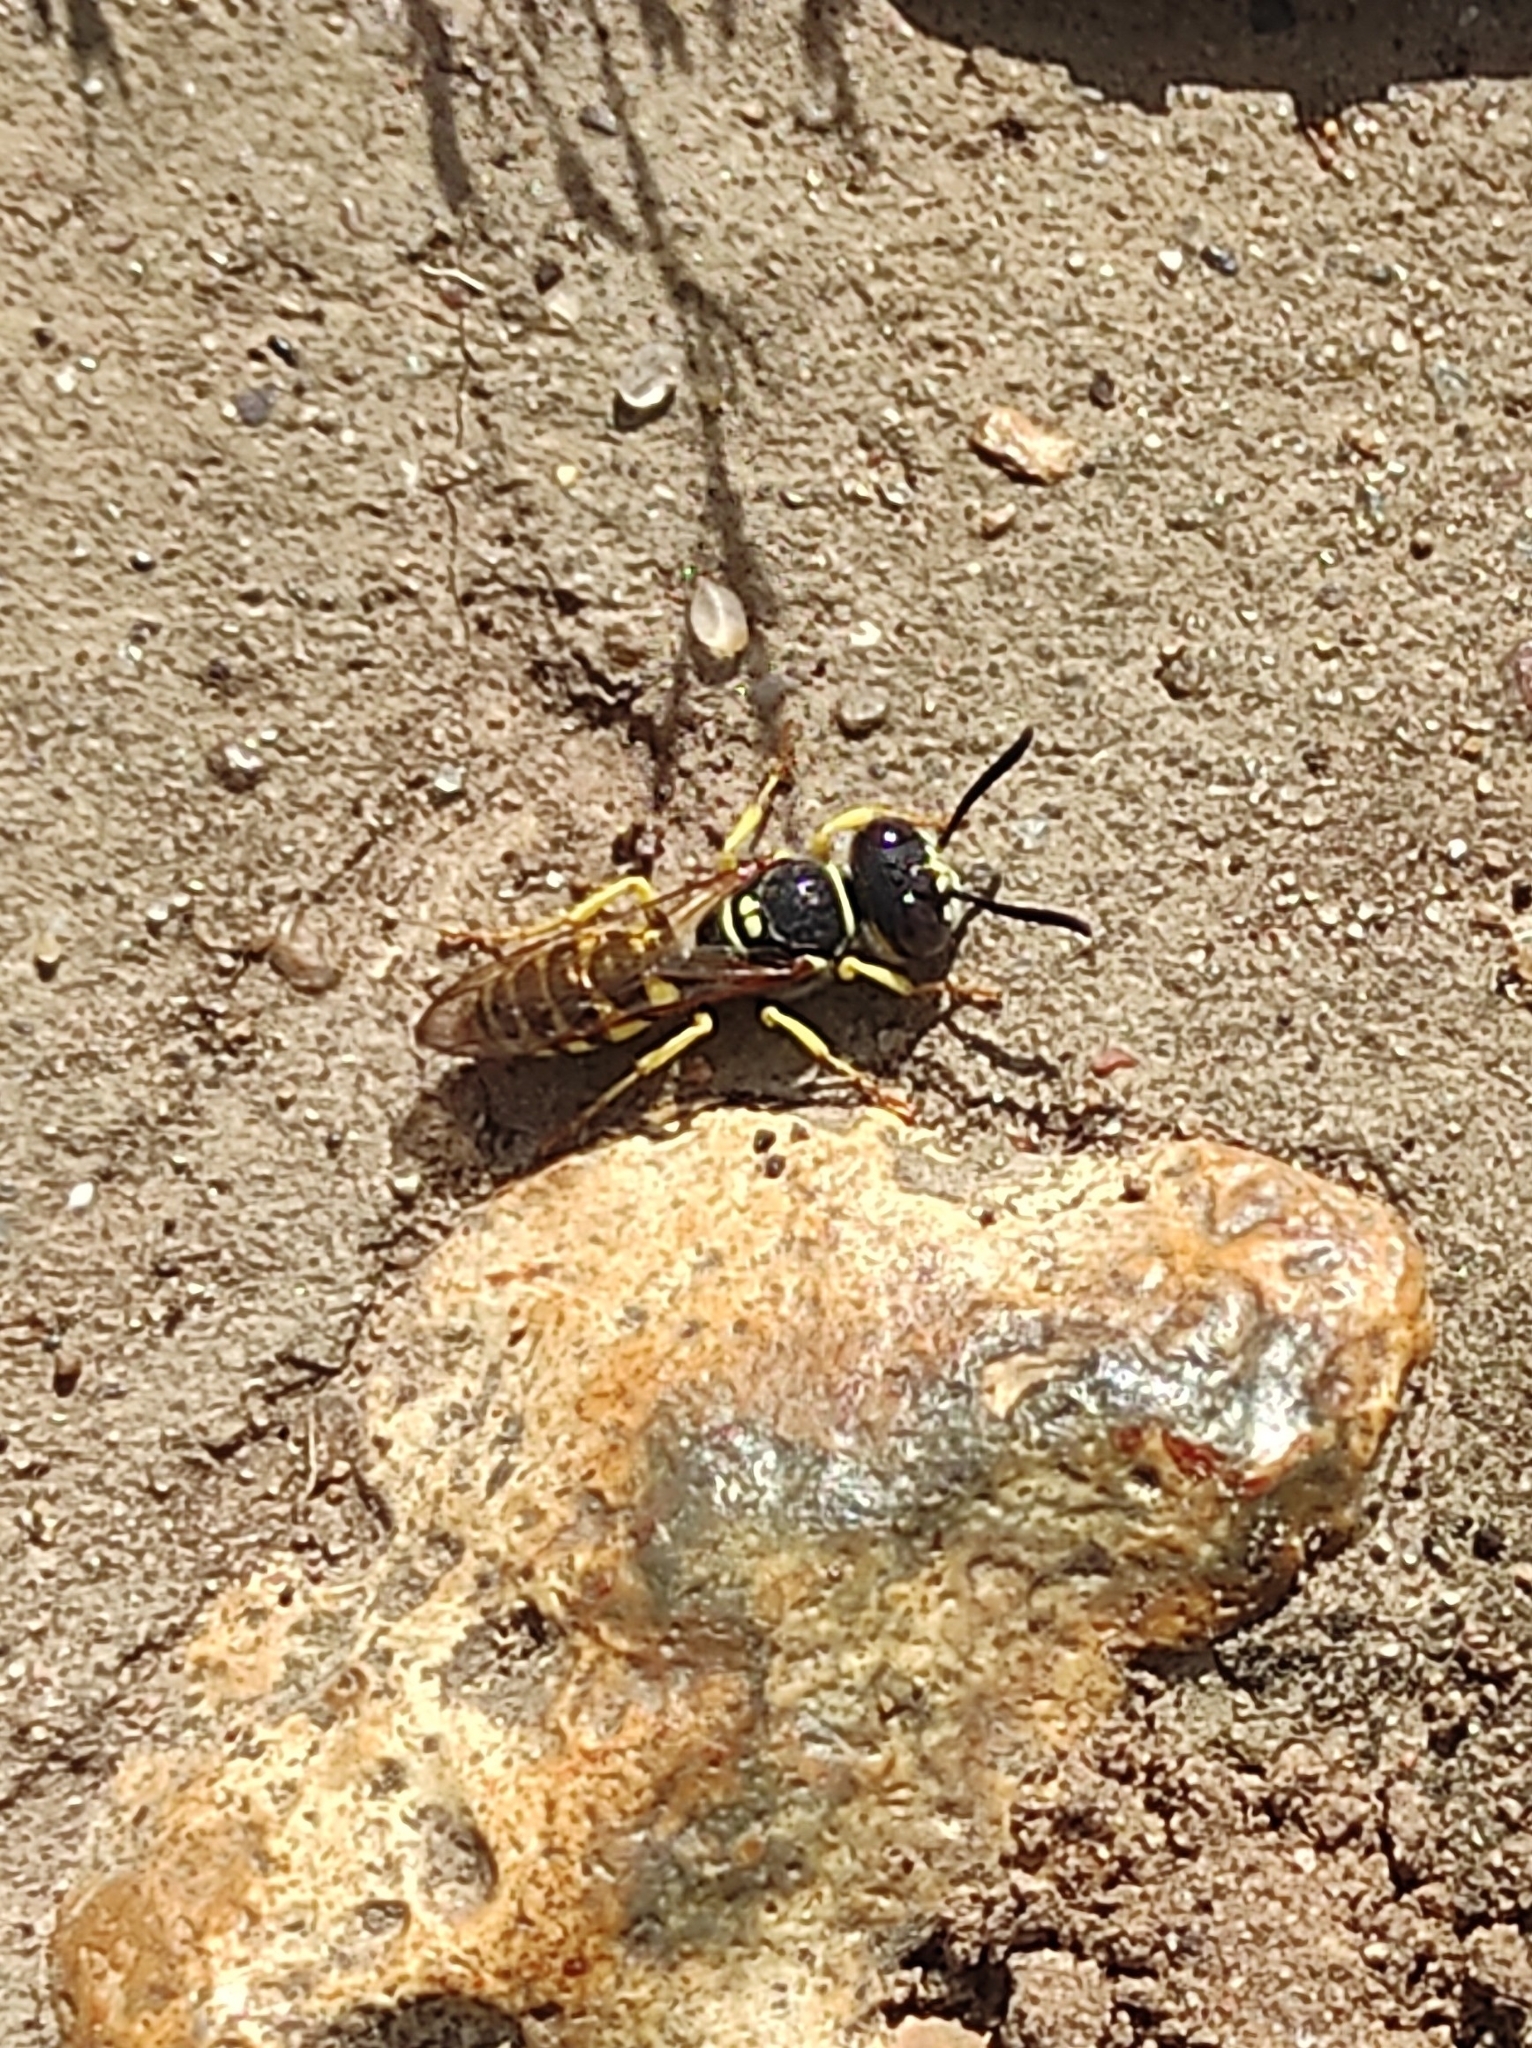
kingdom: Animalia
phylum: Arthropoda
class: Insecta
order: Hymenoptera
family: Crabronidae
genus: Philanthus
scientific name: Philanthus triangulum
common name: Bee wolf
